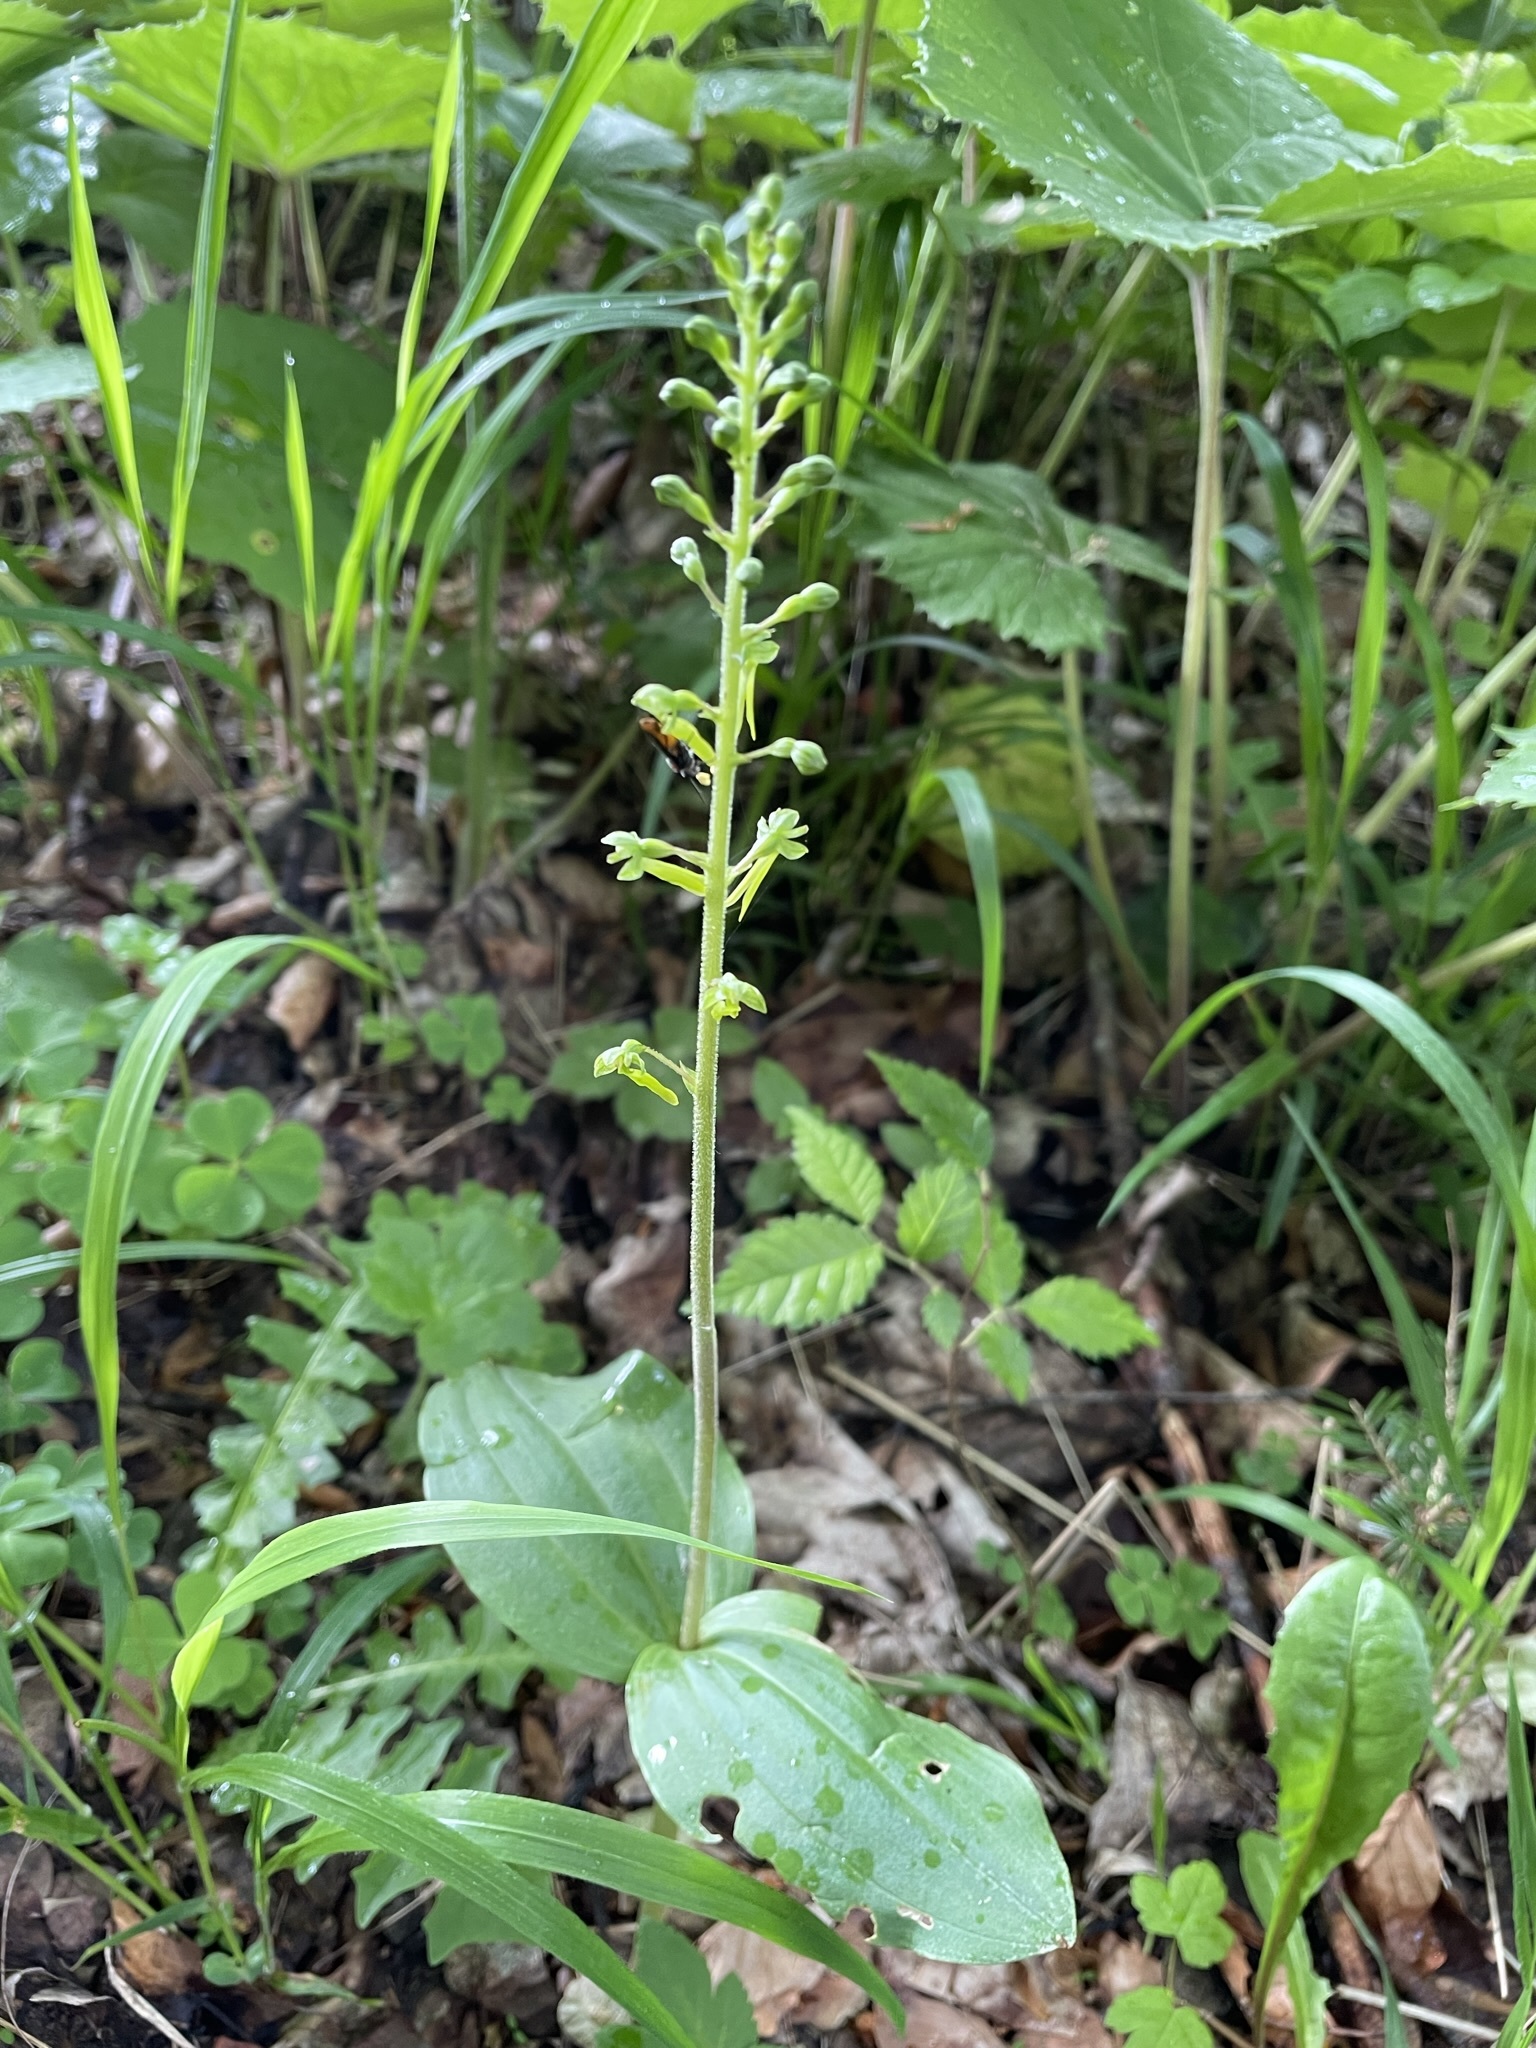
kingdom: Plantae
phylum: Tracheophyta
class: Liliopsida
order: Asparagales
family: Orchidaceae
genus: Neottia
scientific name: Neottia ovata
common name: Common twayblade
